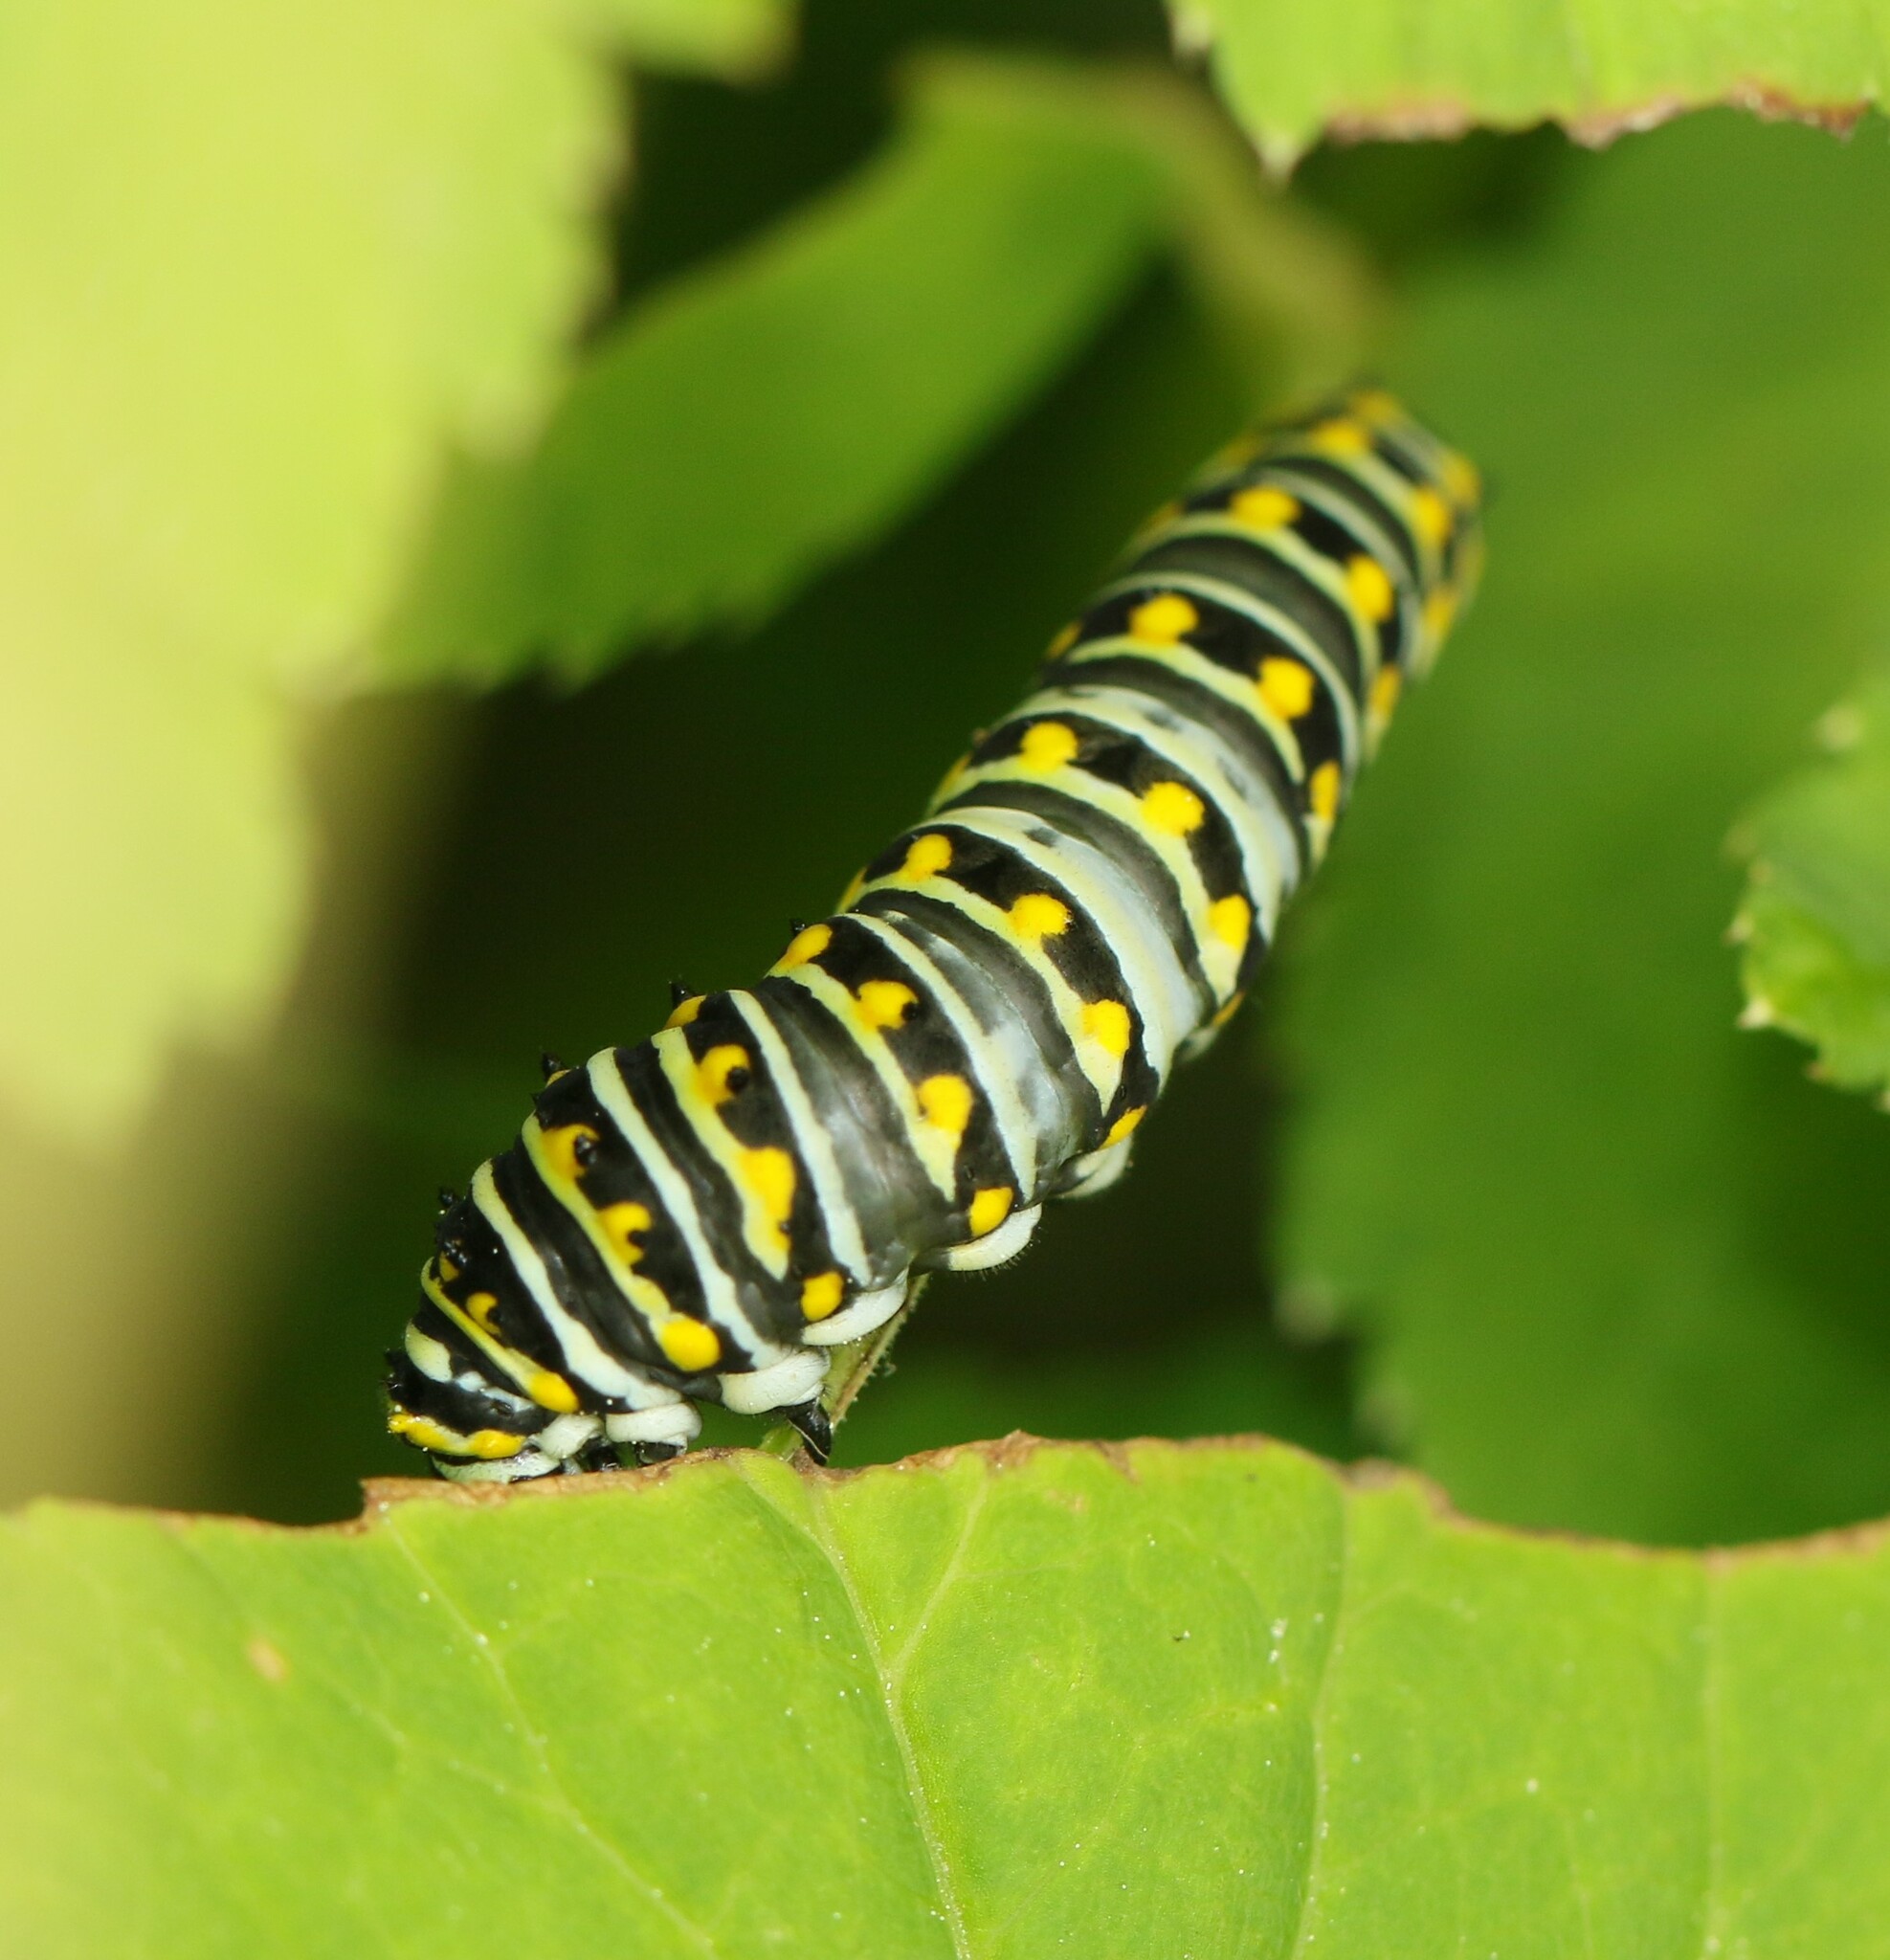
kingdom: Animalia
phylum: Arthropoda
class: Insecta
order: Lepidoptera
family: Papilionidae
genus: Papilio
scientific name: Papilio polyxenes
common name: Black swallowtail
